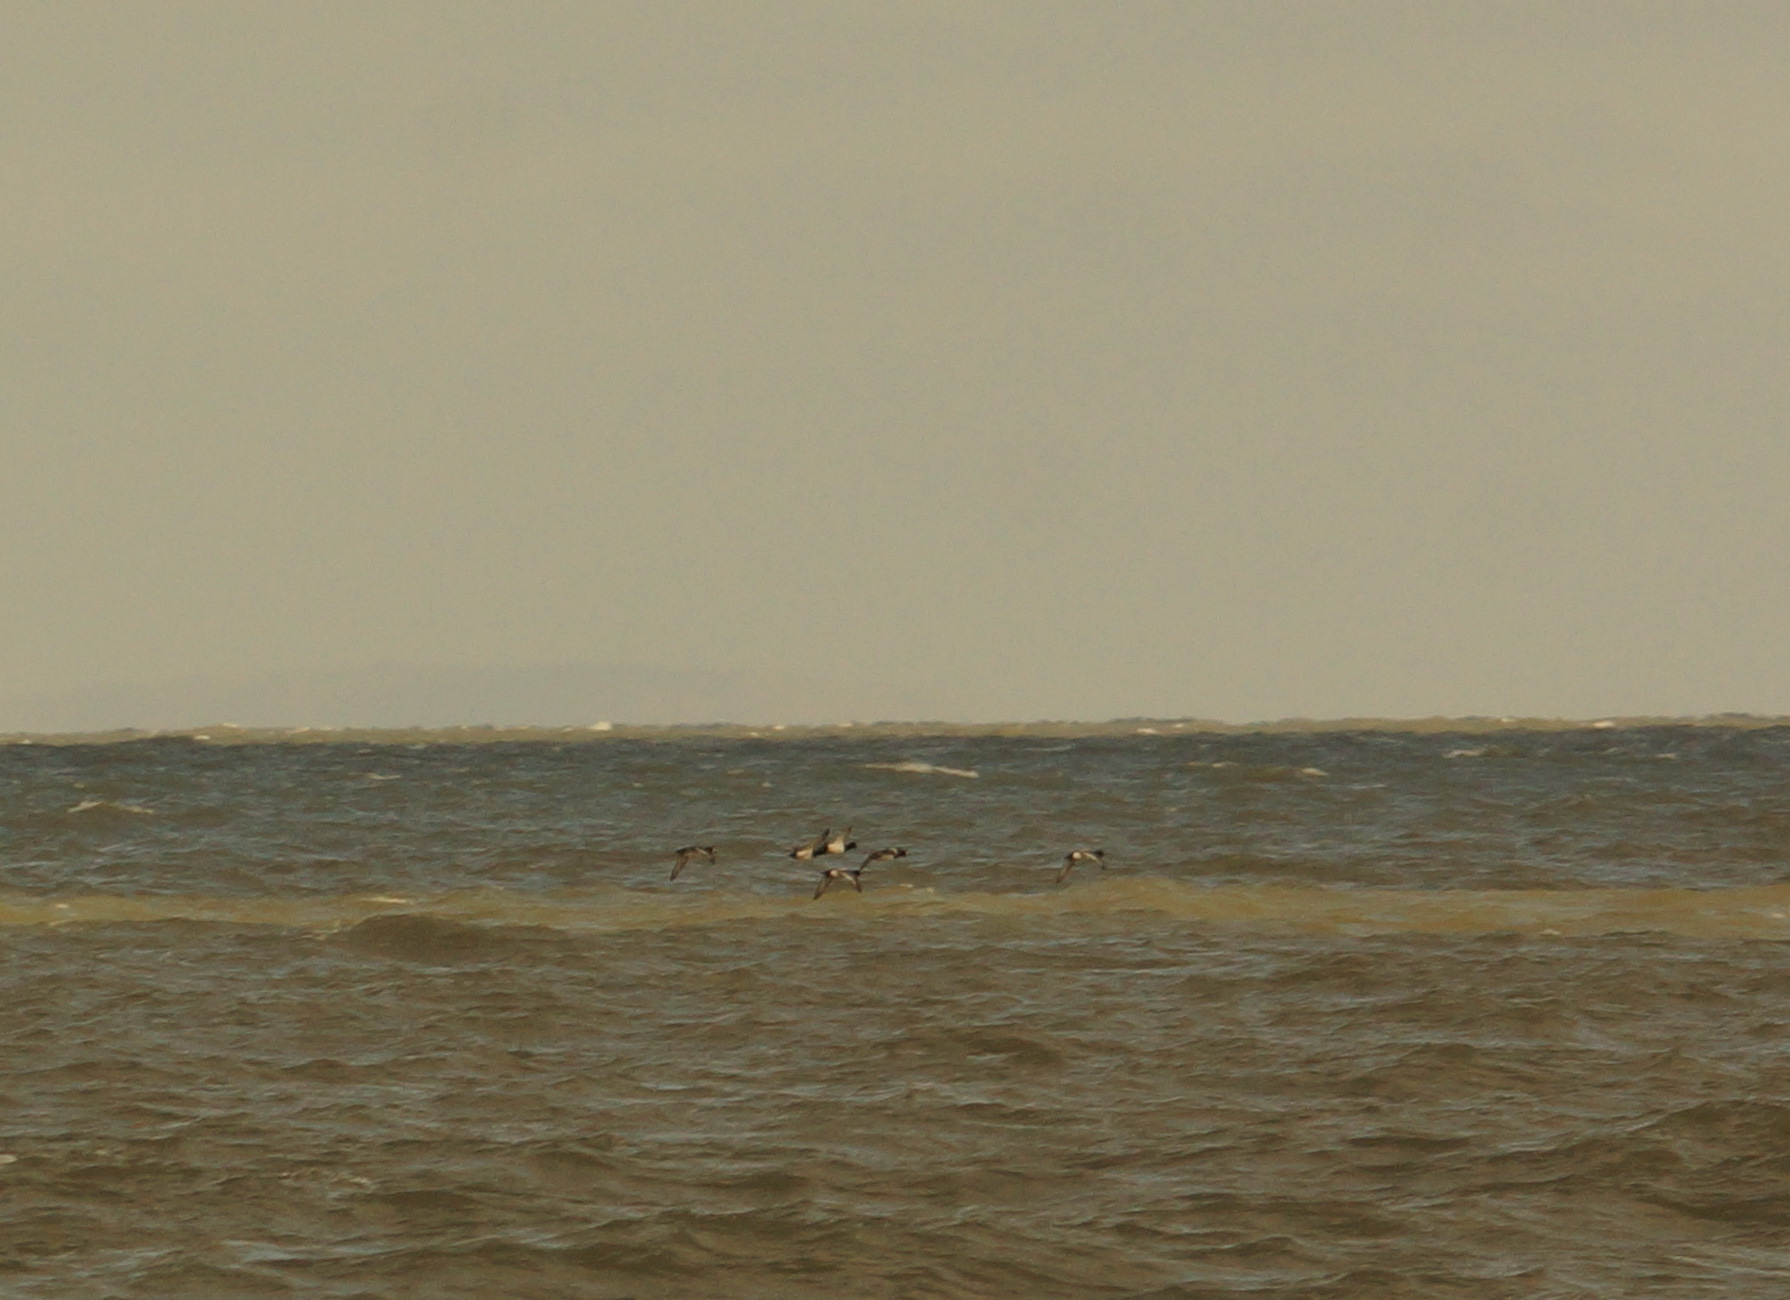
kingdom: Animalia
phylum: Chordata
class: Aves
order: Anseriformes
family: Anatidae
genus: Aythya
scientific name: Aythya marila
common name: Greater scaup
